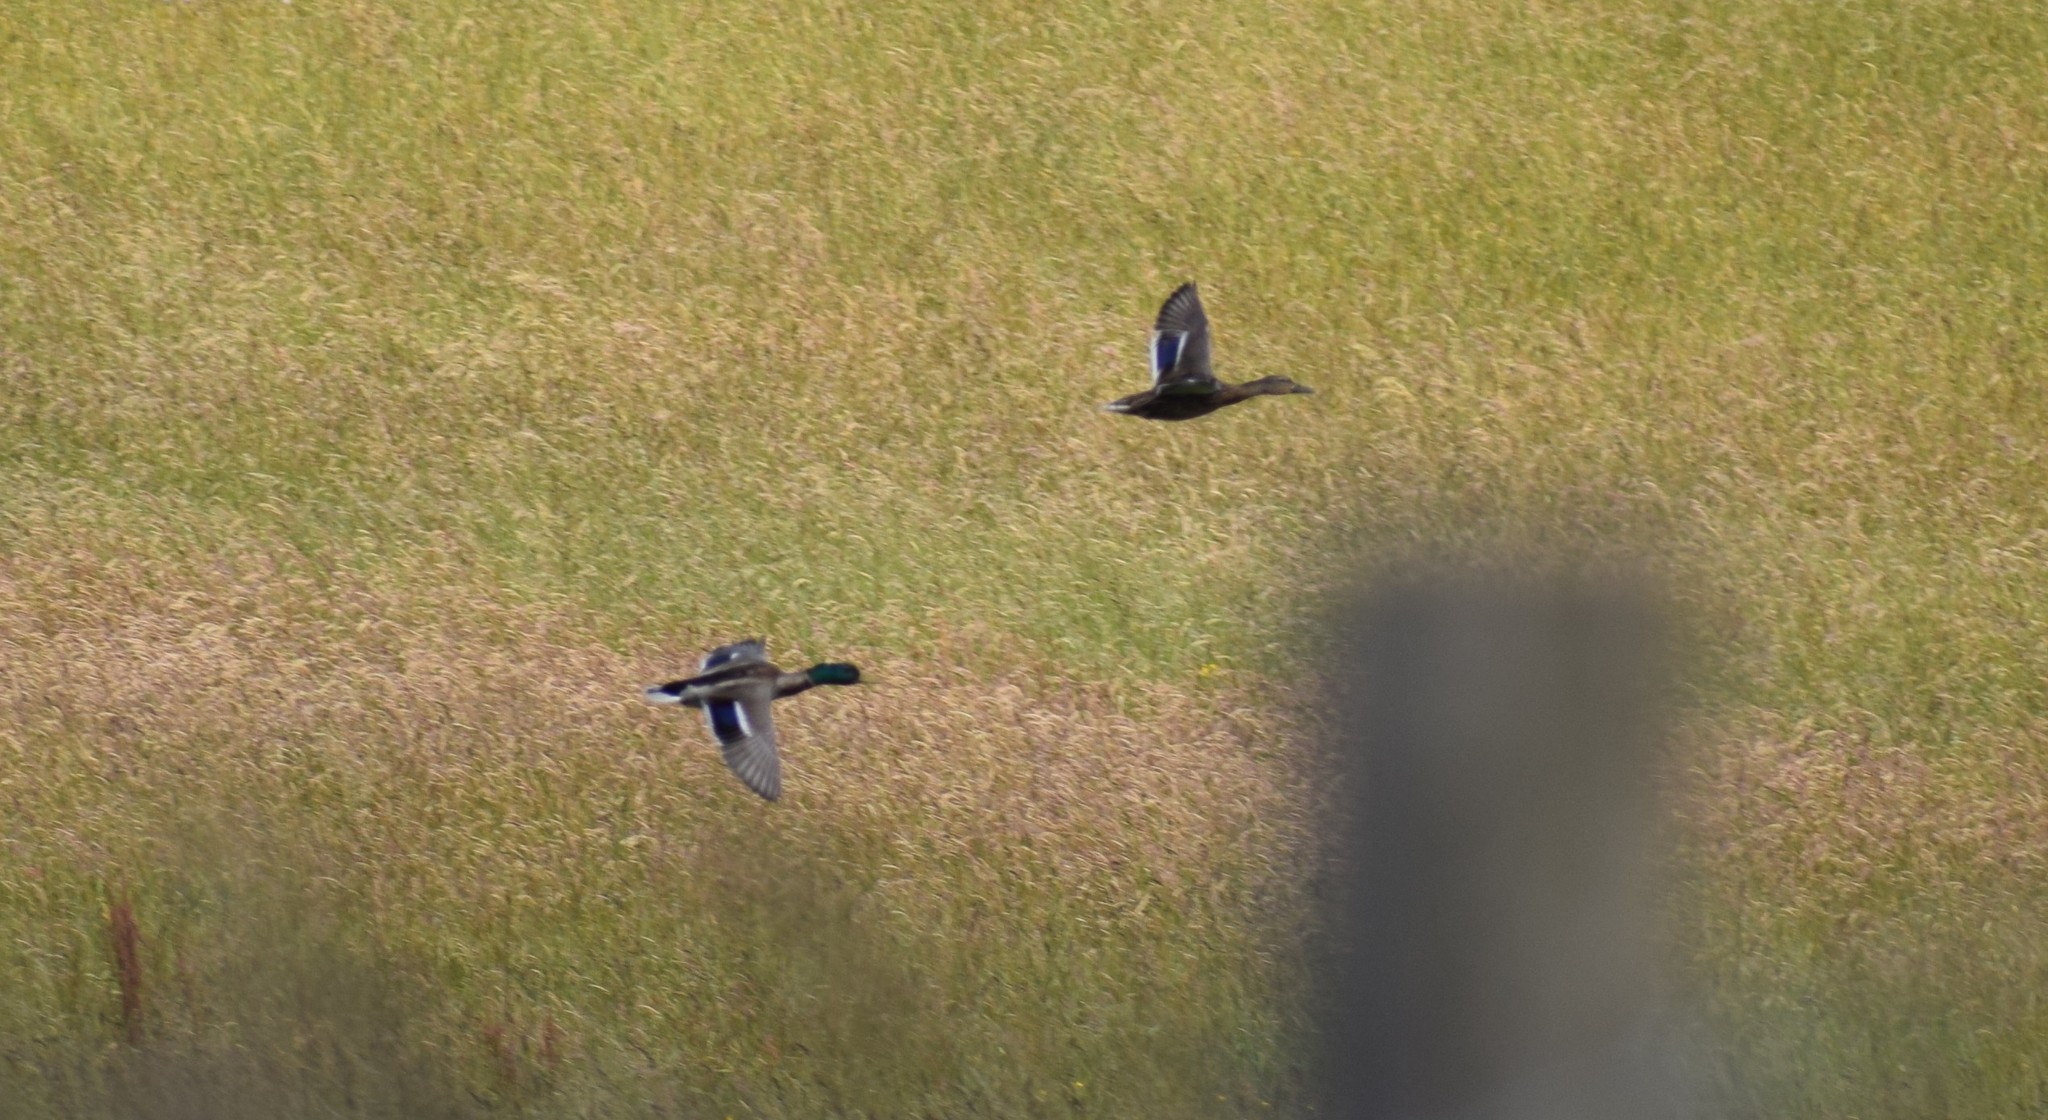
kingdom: Animalia
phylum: Chordata
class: Aves
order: Anseriformes
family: Anatidae
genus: Anas
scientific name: Anas platyrhynchos
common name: Mallard
